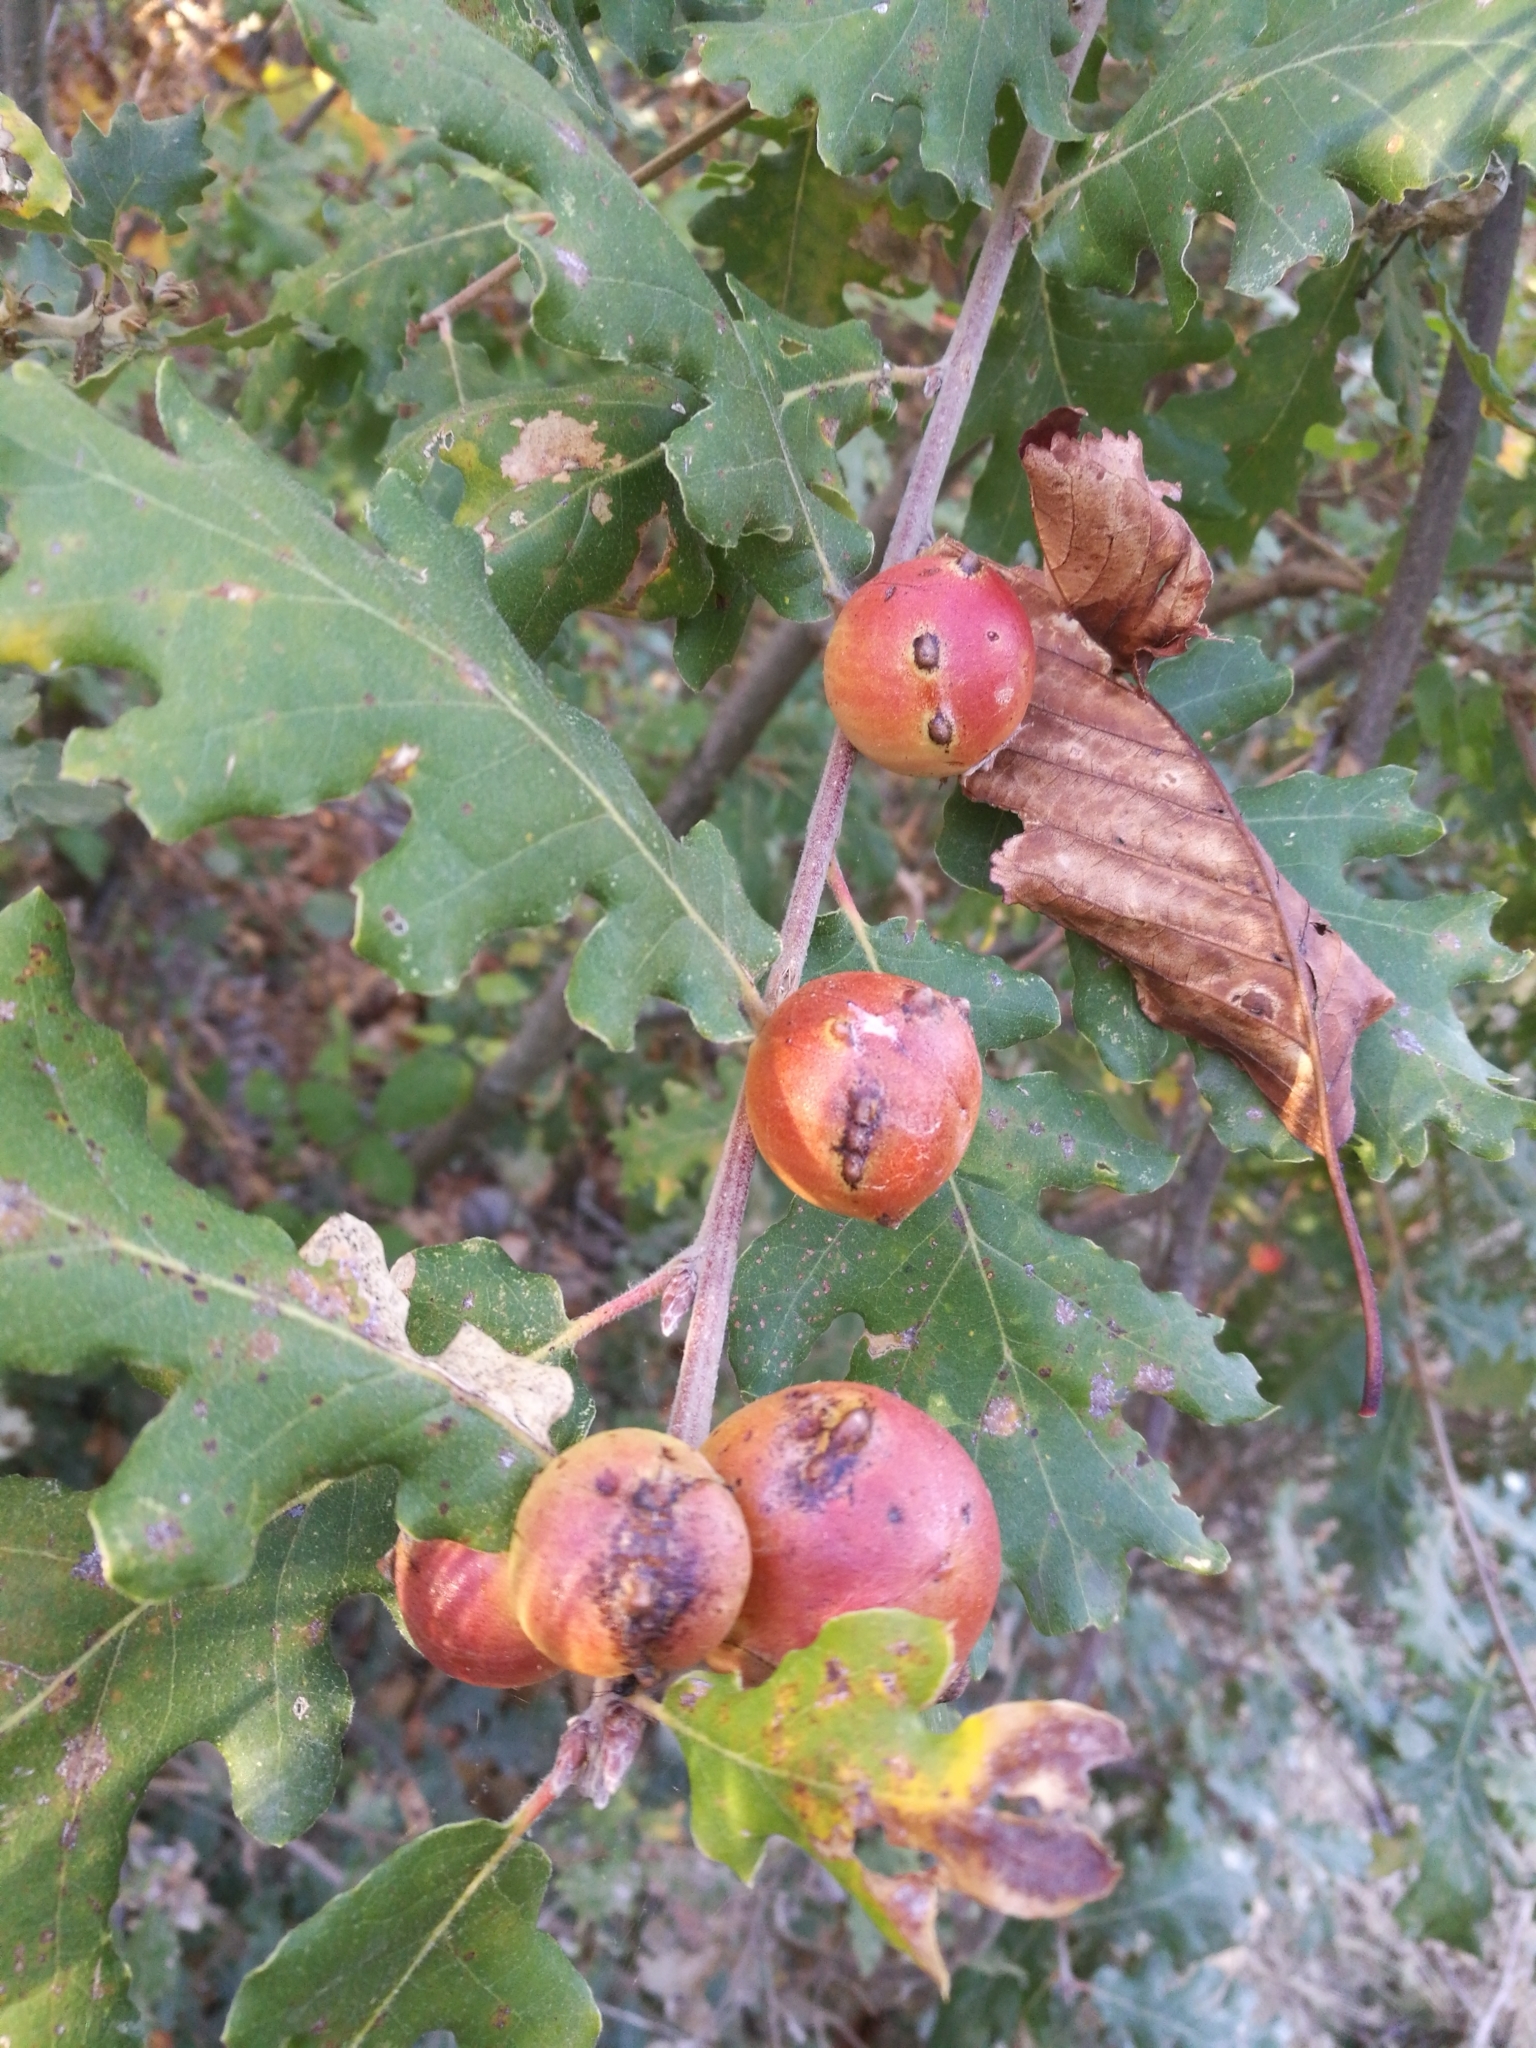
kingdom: Animalia
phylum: Arthropoda
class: Insecta
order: Hymenoptera
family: Cynipidae
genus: Andricus
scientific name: Andricus quercustozae
